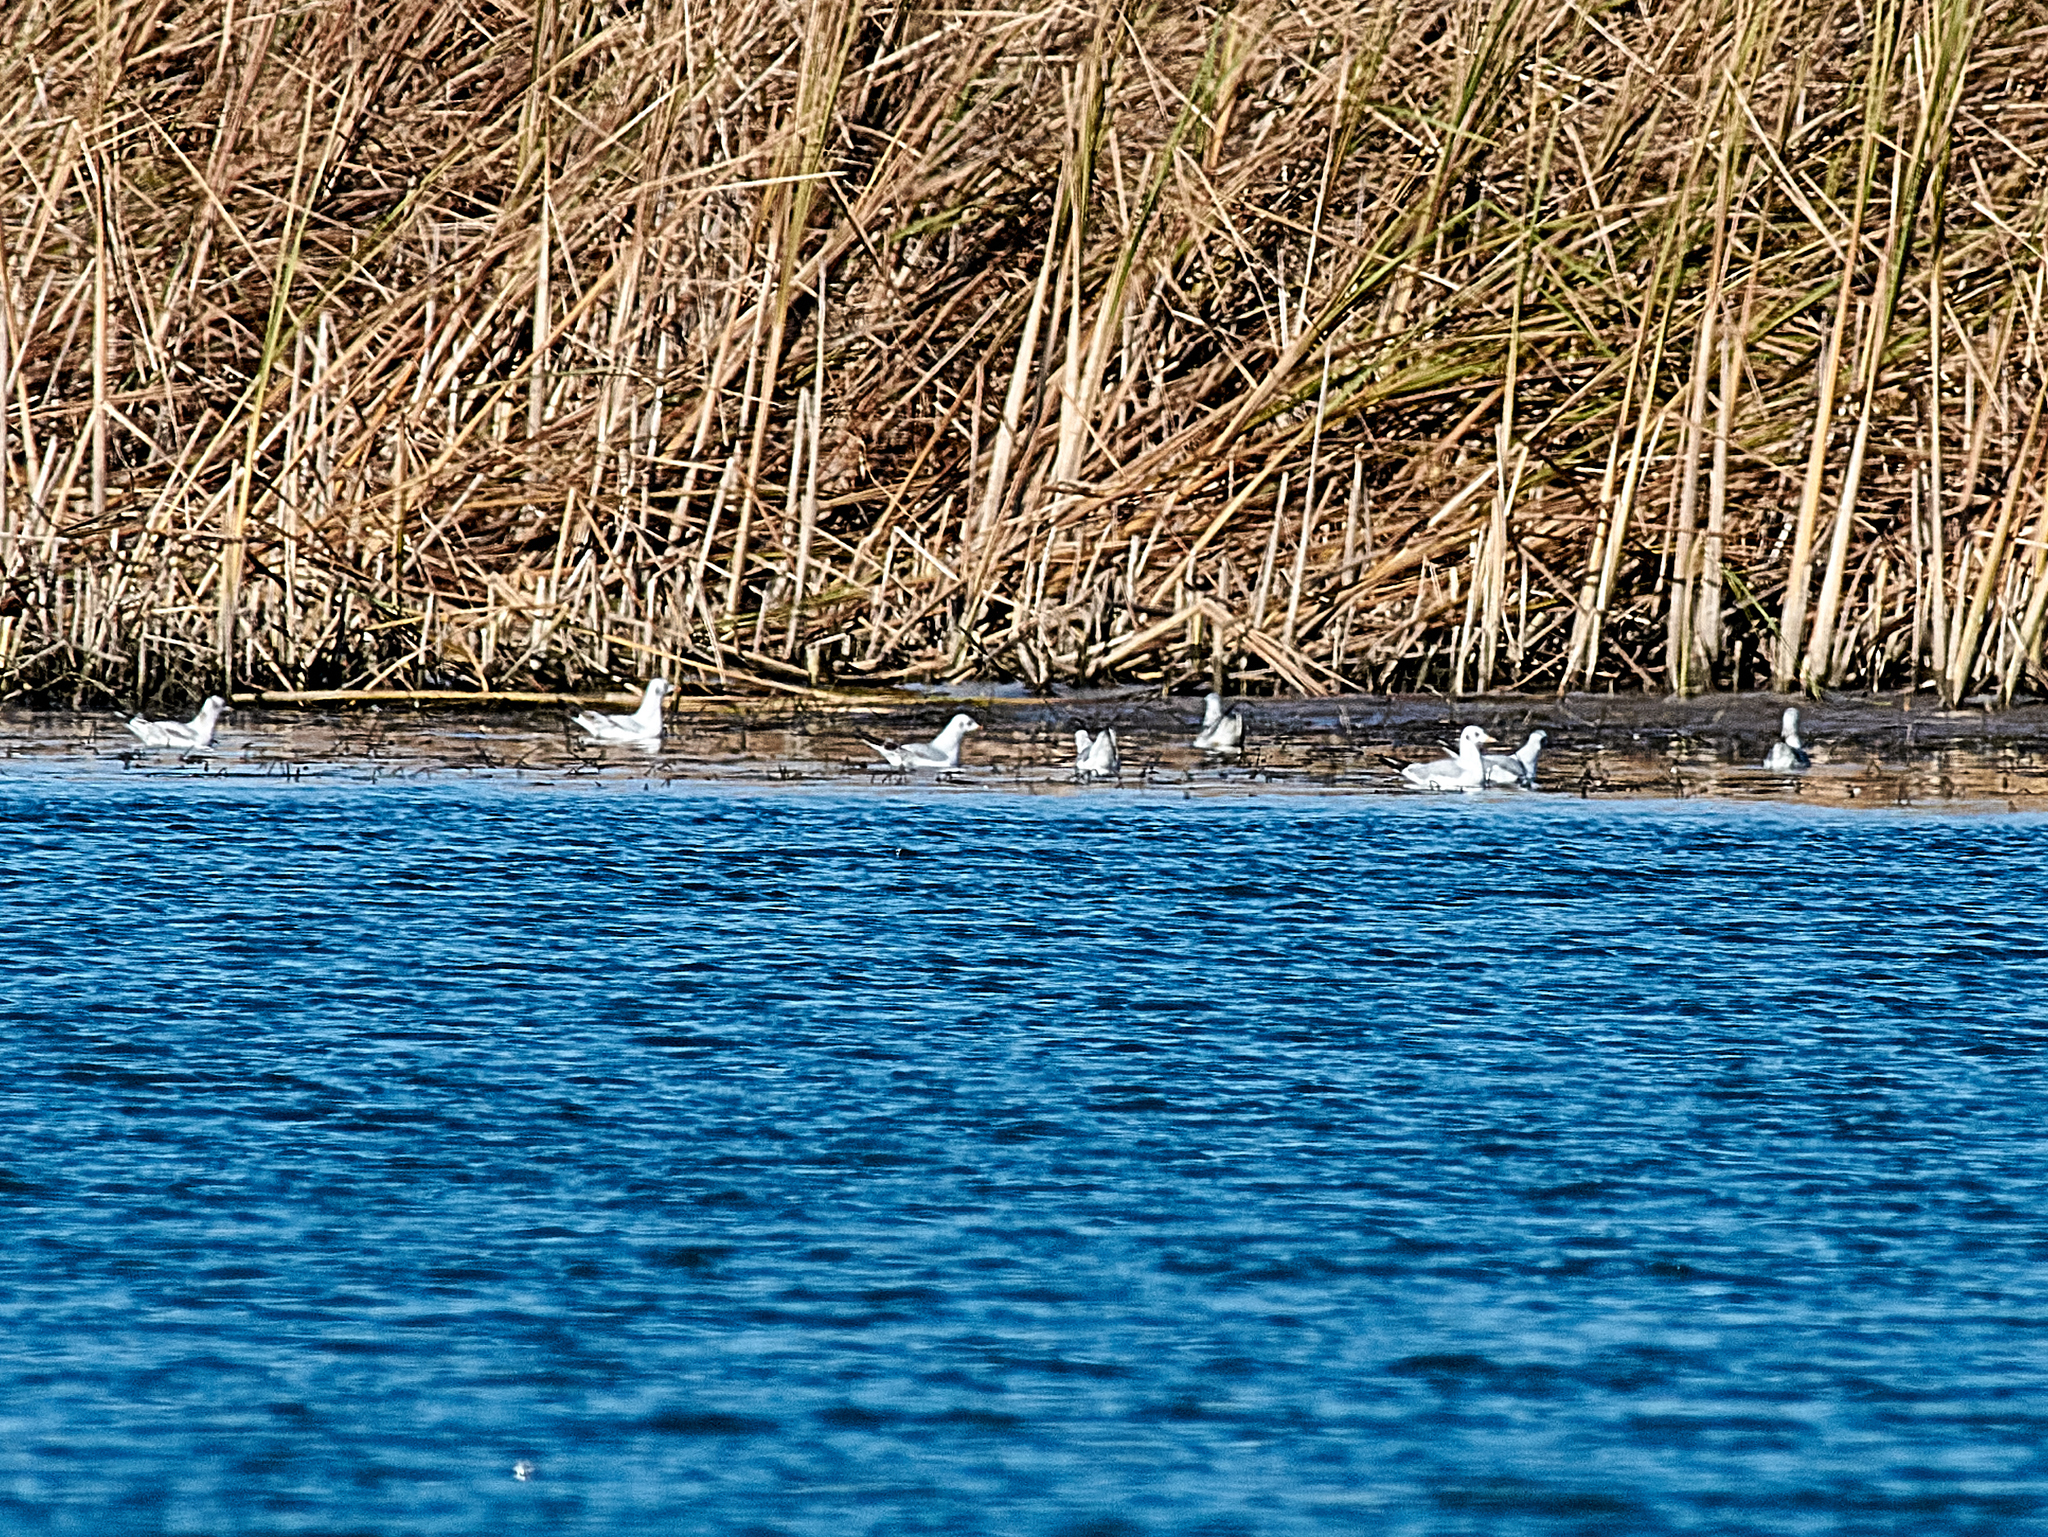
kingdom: Animalia
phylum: Chordata
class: Aves
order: Charadriiformes
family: Laridae
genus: Chroicocephalus
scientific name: Chroicocephalus ridibundus
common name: Black-headed gull
